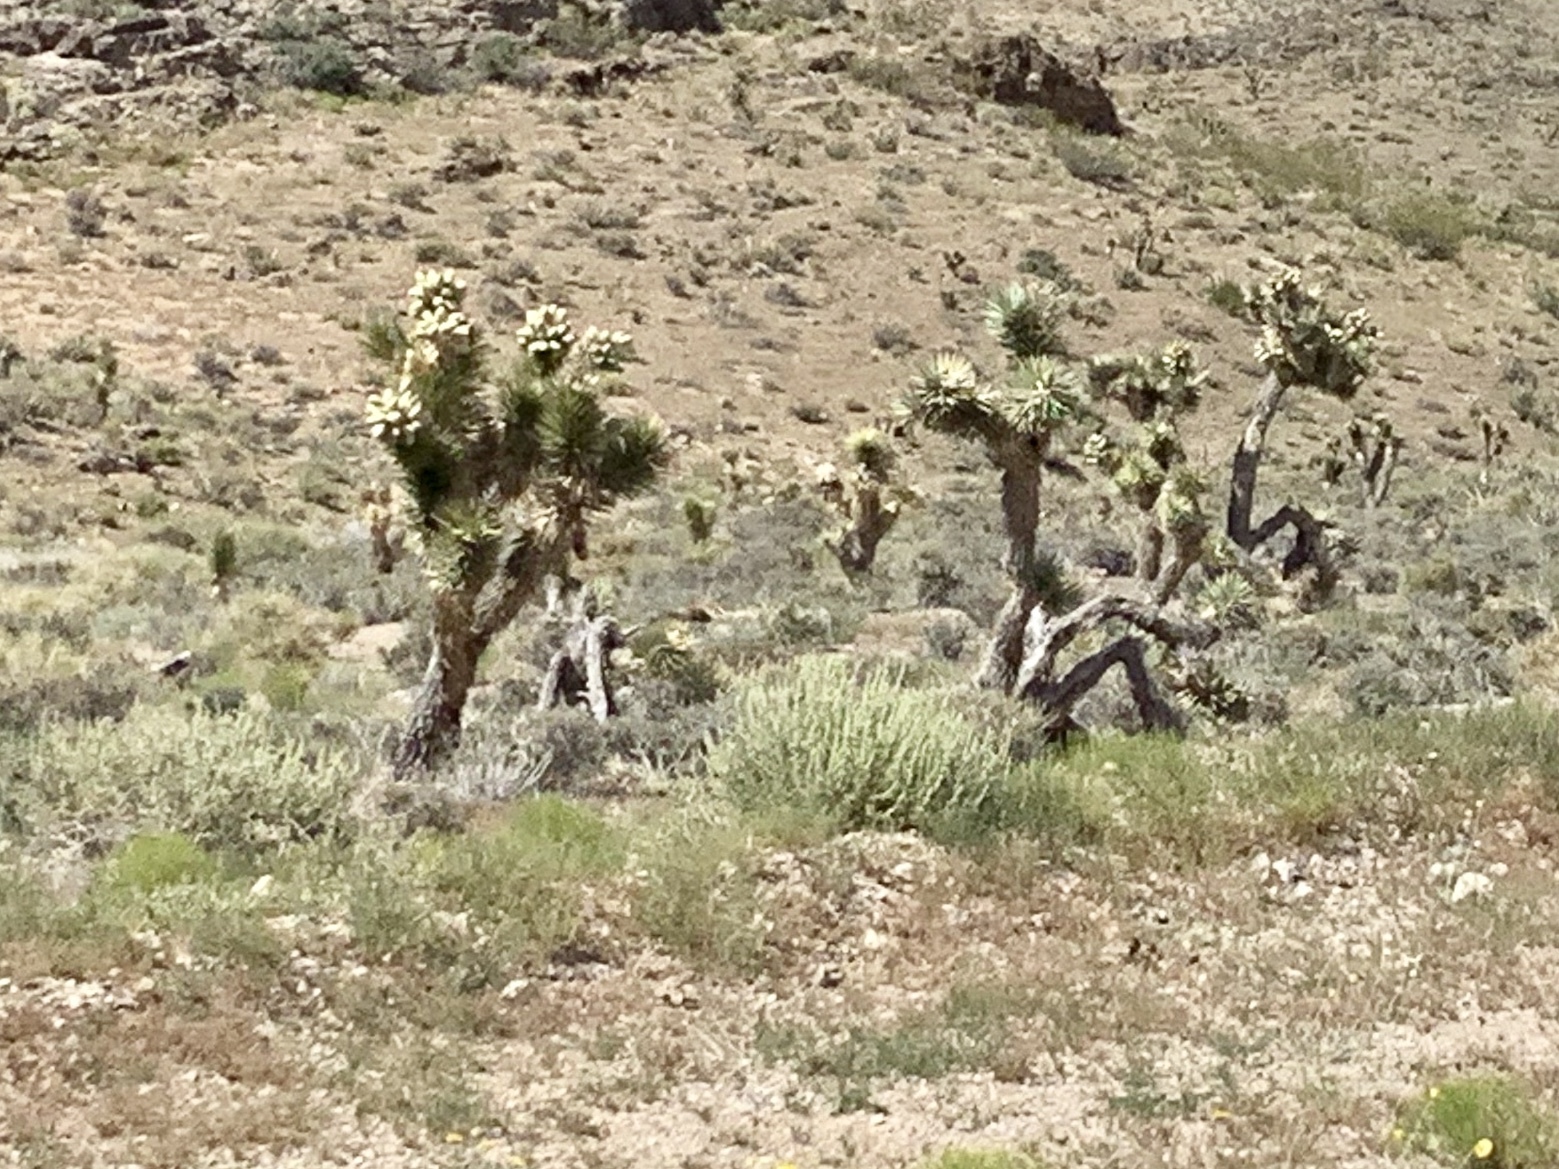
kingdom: Plantae
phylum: Tracheophyta
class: Liliopsida
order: Asparagales
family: Asparagaceae
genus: Yucca
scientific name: Yucca brevifolia
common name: Joshua tree
